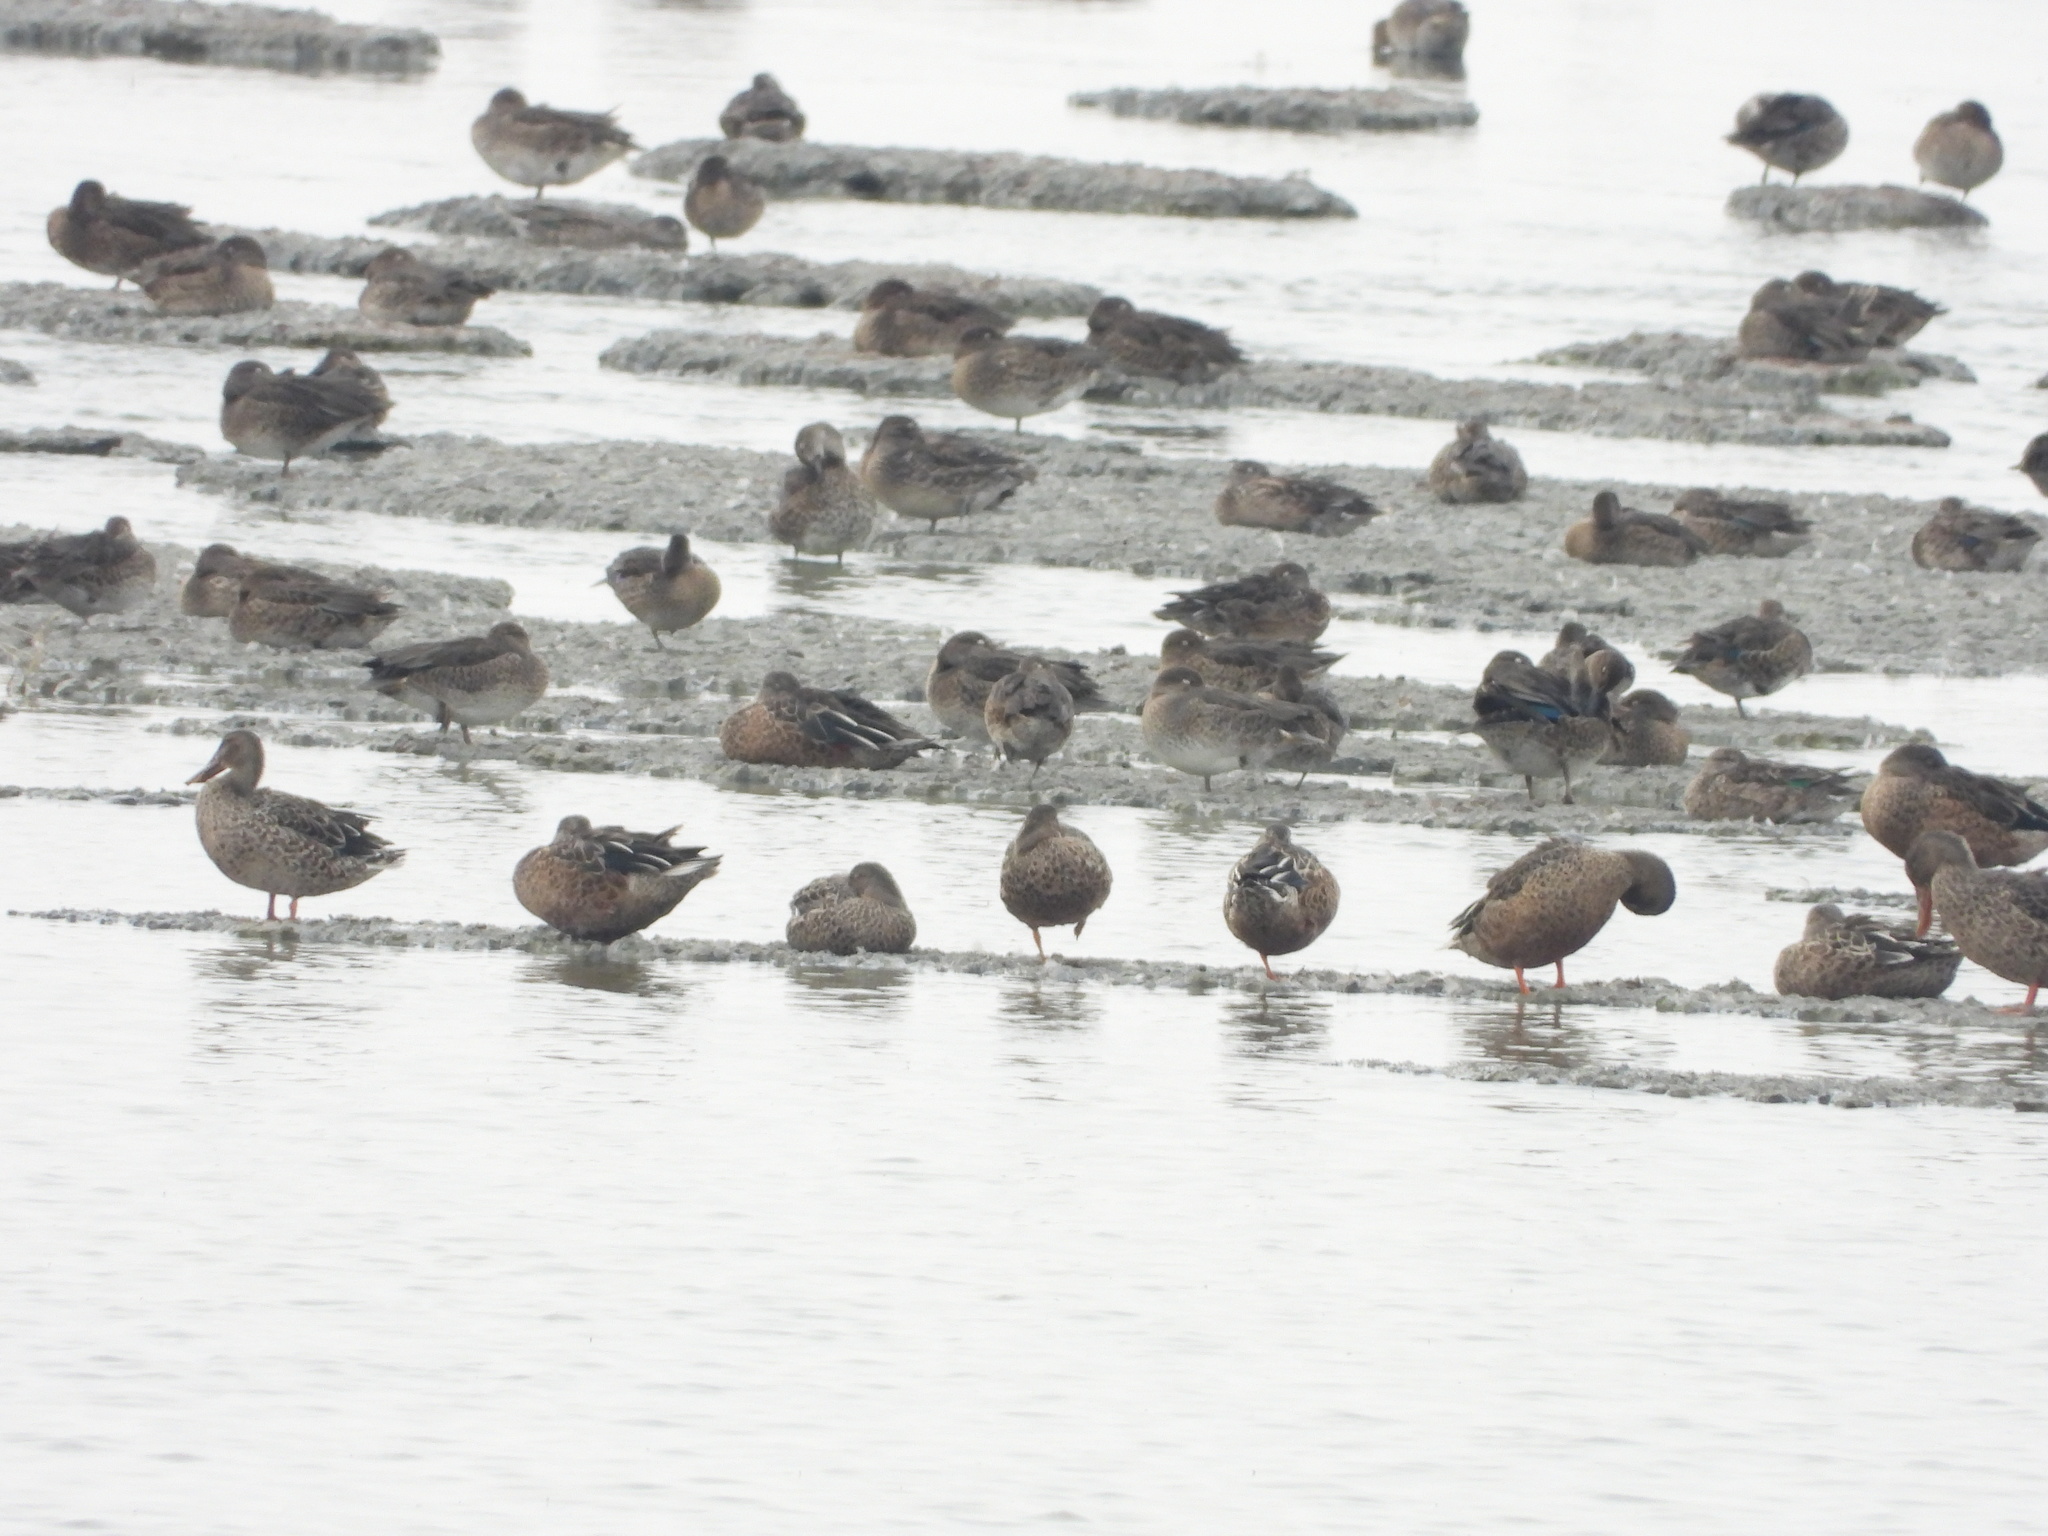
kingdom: Animalia
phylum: Chordata
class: Aves
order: Anseriformes
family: Anatidae
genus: Spatula
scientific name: Spatula clypeata
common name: Northern shoveler
